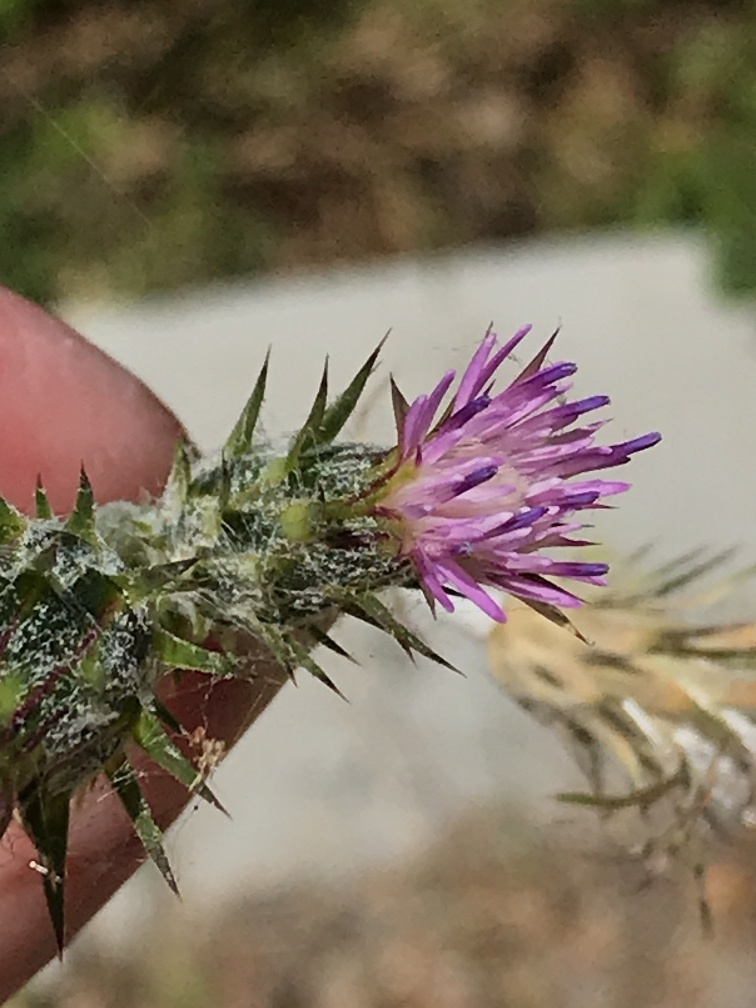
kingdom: Plantae
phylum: Tracheophyta
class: Magnoliopsida
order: Asterales
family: Asteraceae
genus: Carduus
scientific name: Carduus pycnocephalus
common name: Plymouth thistle
